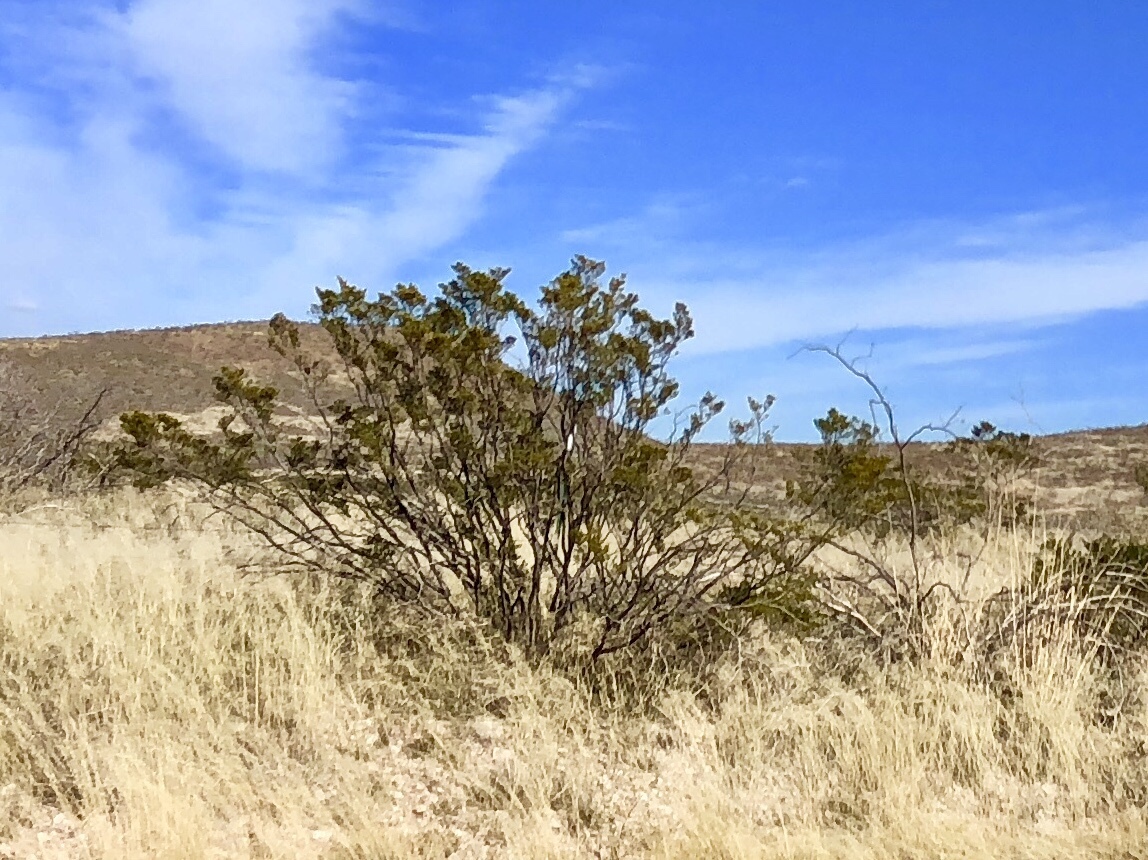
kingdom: Plantae
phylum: Tracheophyta
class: Magnoliopsida
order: Zygophyllales
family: Zygophyllaceae
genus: Larrea
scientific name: Larrea tridentata
